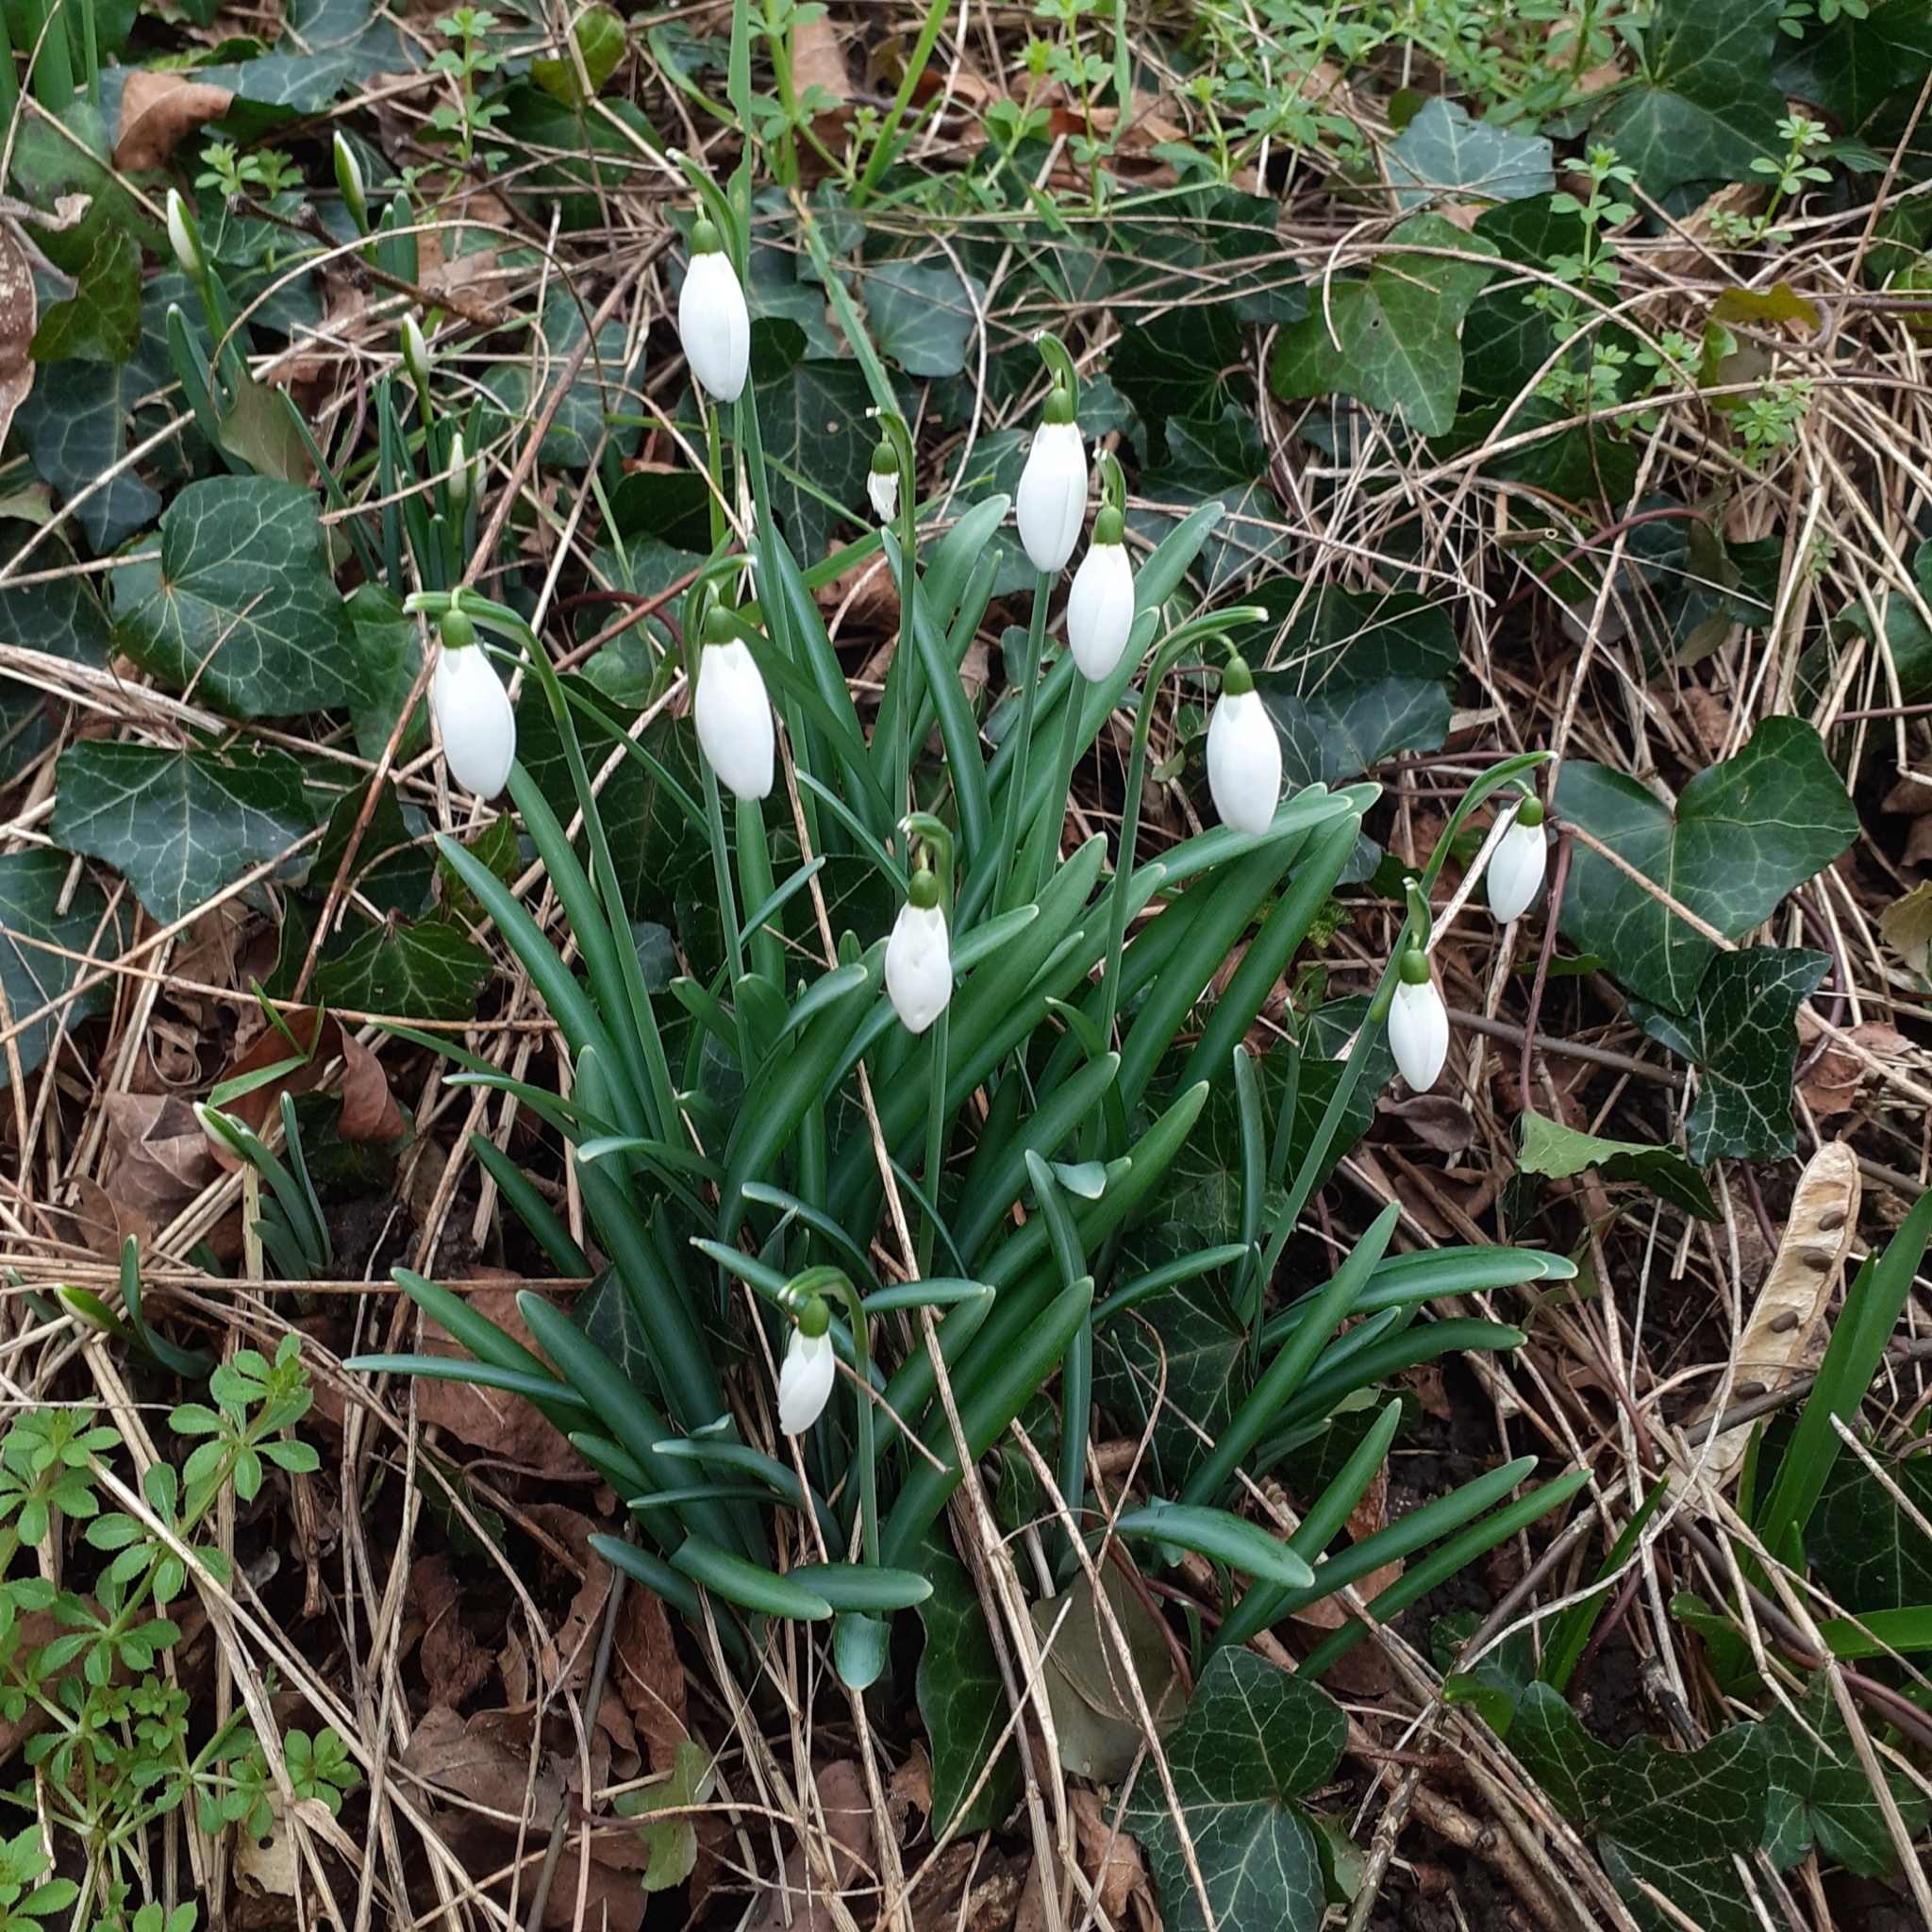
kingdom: Plantae
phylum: Tracheophyta
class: Liliopsida
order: Asparagales
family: Amaryllidaceae
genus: Galanthus
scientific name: Galanthus nivalis
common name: Snowdrop
